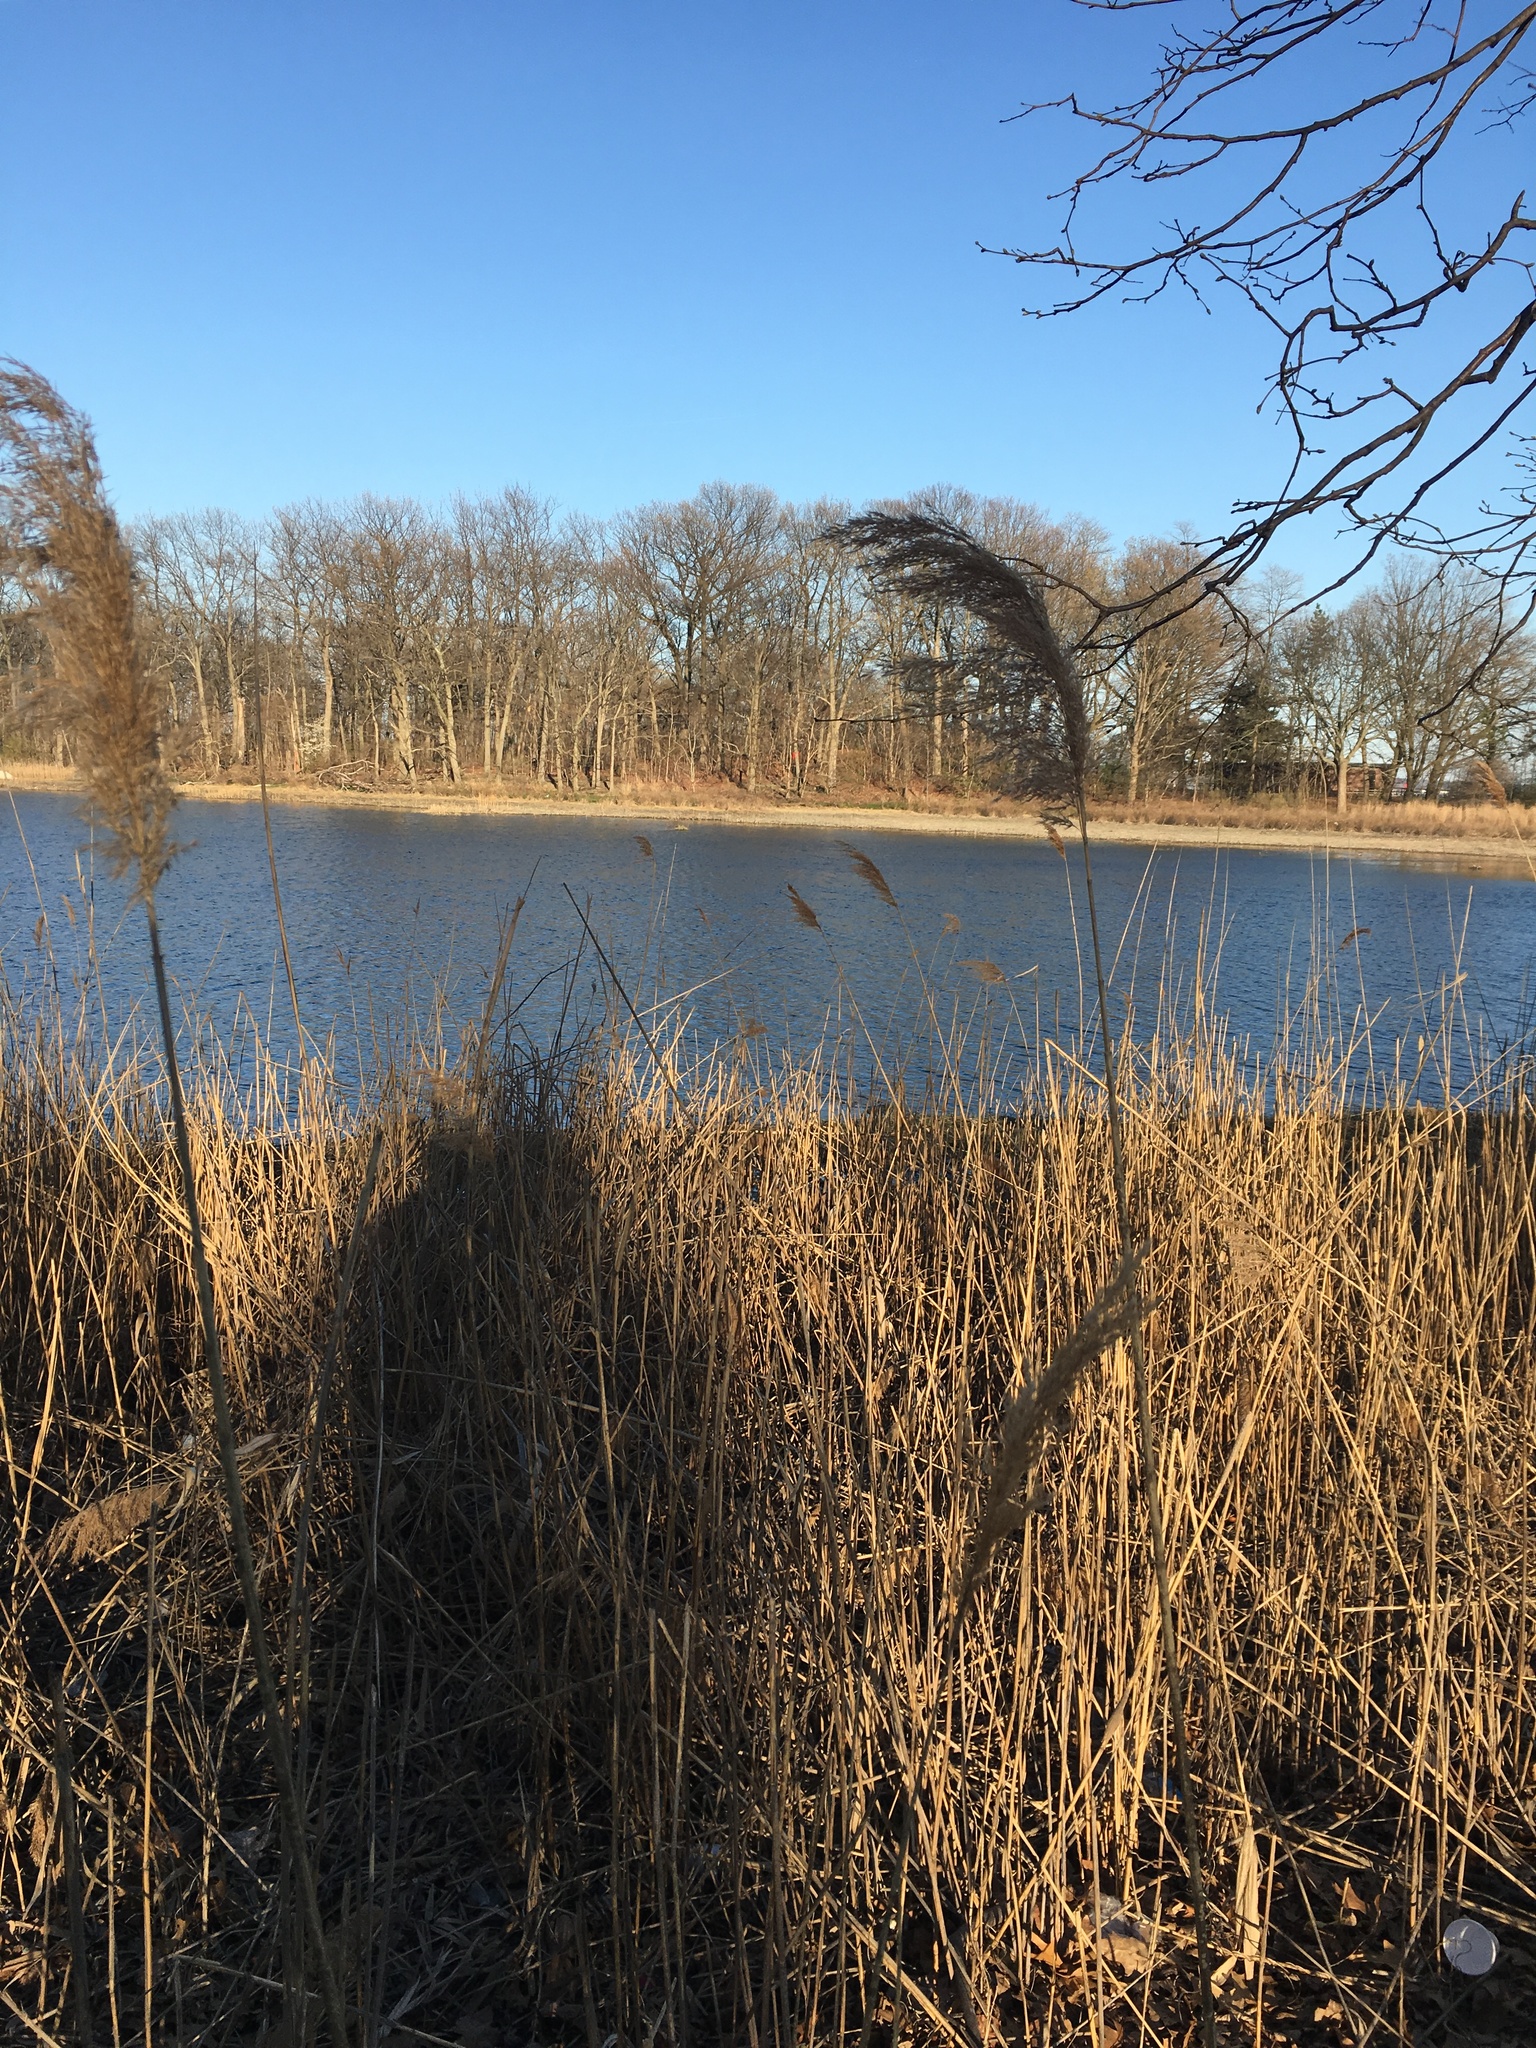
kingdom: Plantae
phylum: Tracheophyta
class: Liliopsida
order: Poales
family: Poaceae
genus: Phragmites
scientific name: Phragmites australis
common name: Common reed
